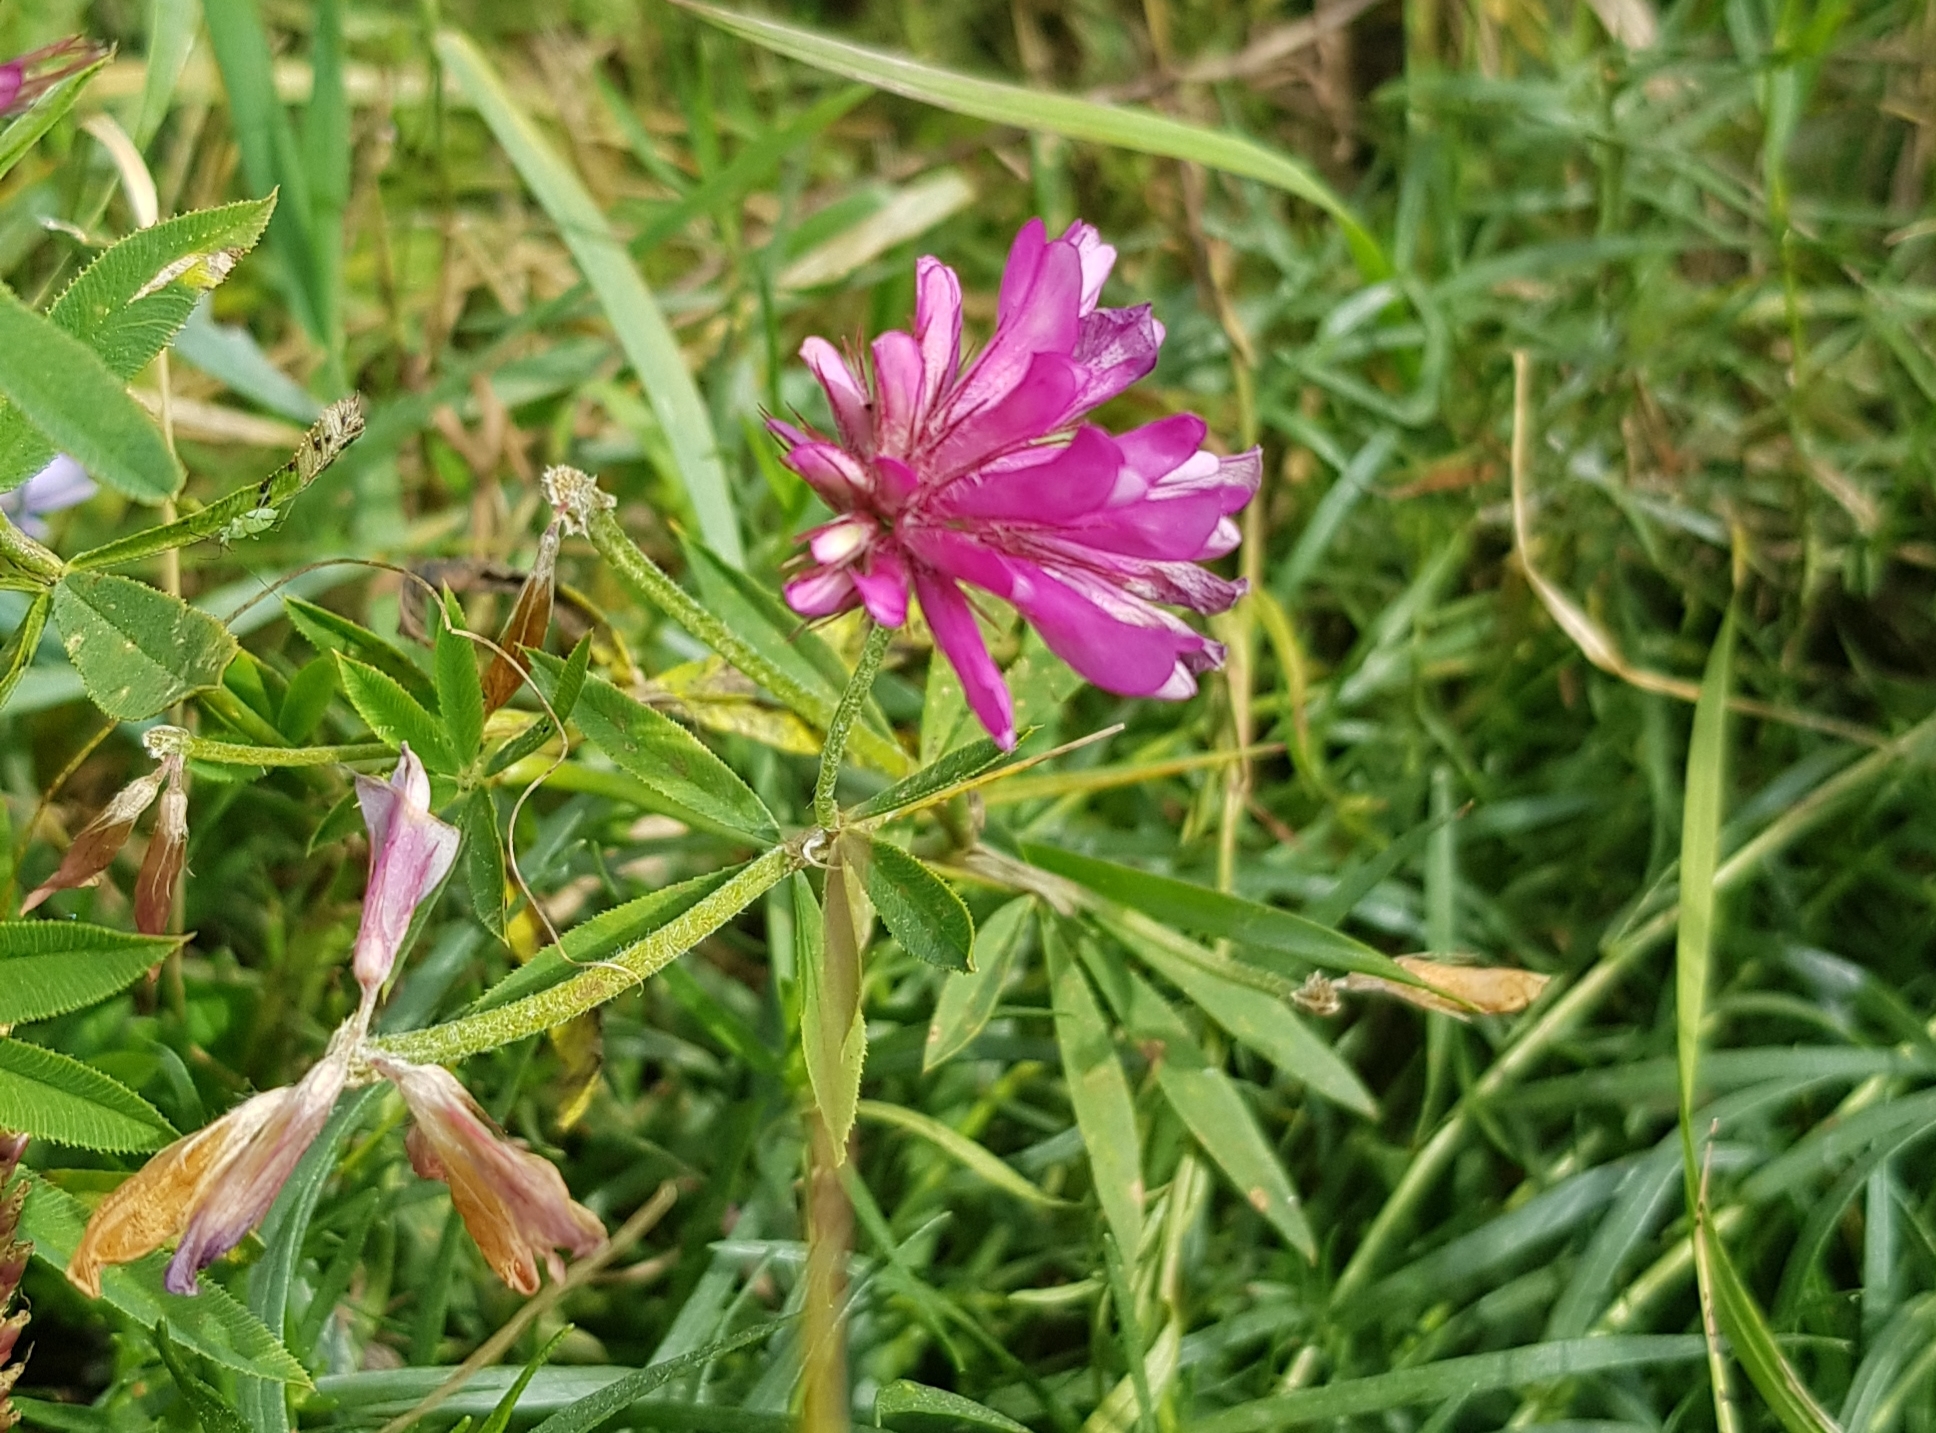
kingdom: Plantae
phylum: Tracheophyta
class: Magnoliopsida
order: Fabales
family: Fabaceae
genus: Trifolium
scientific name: Trifolium lupinaster
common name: Lupine clover
